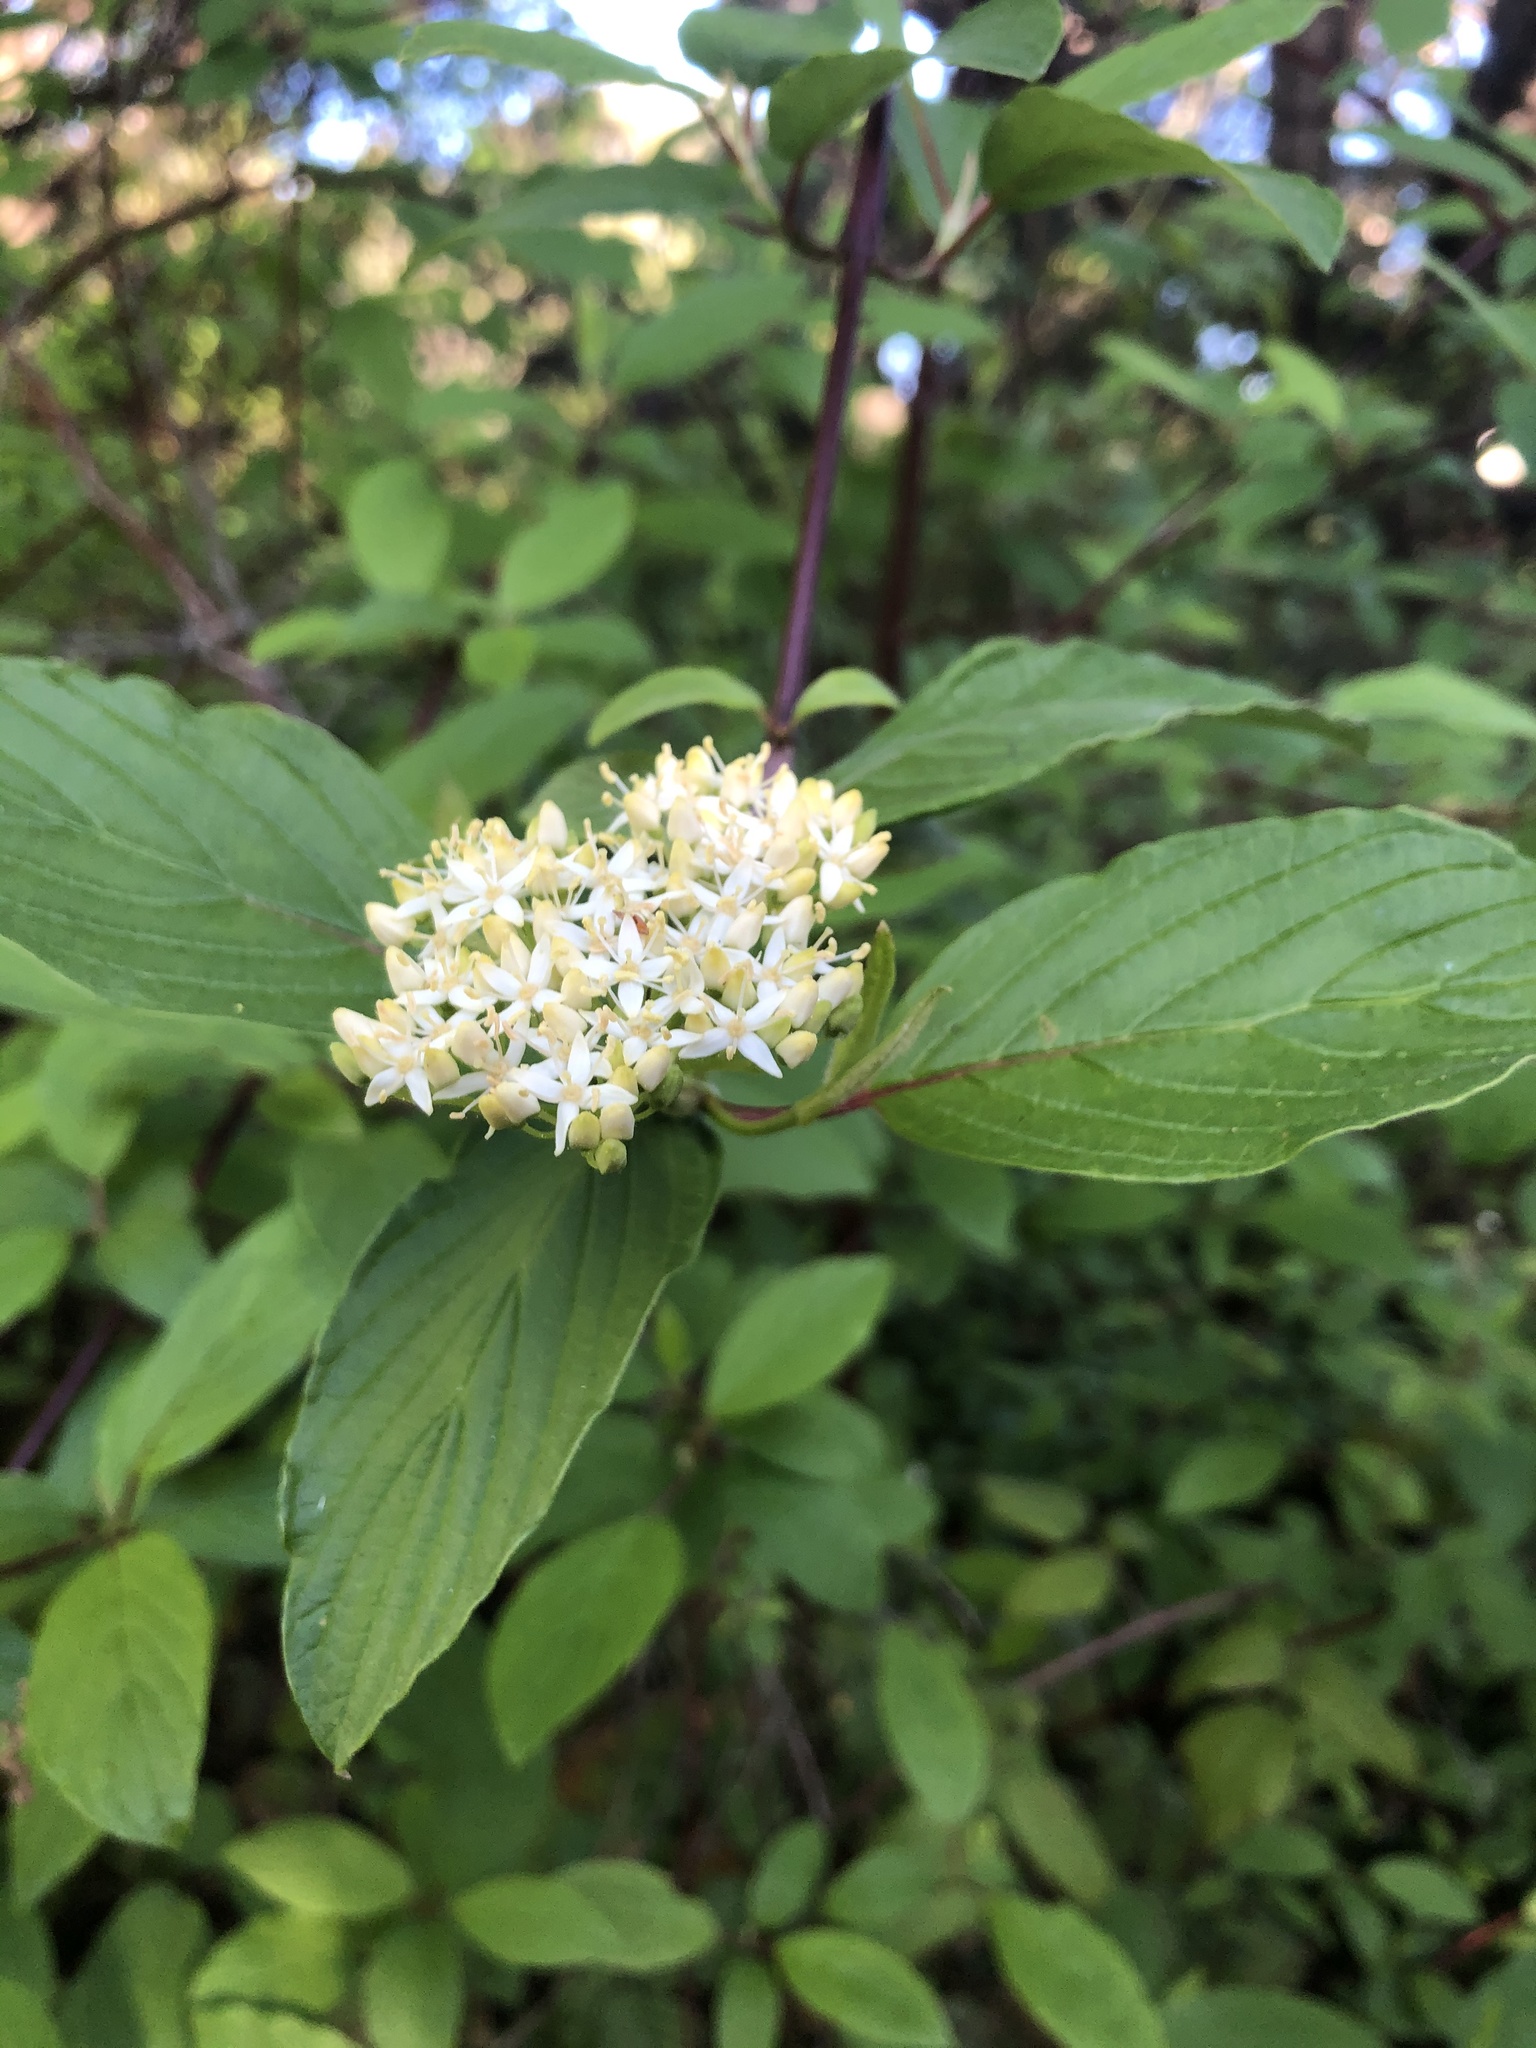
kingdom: Plantae
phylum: Tracheophyta
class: Magnoliopsida
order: Cornales
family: Cornaceae
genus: Cornus
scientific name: Cornus sericea
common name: Red-osier dogwood
